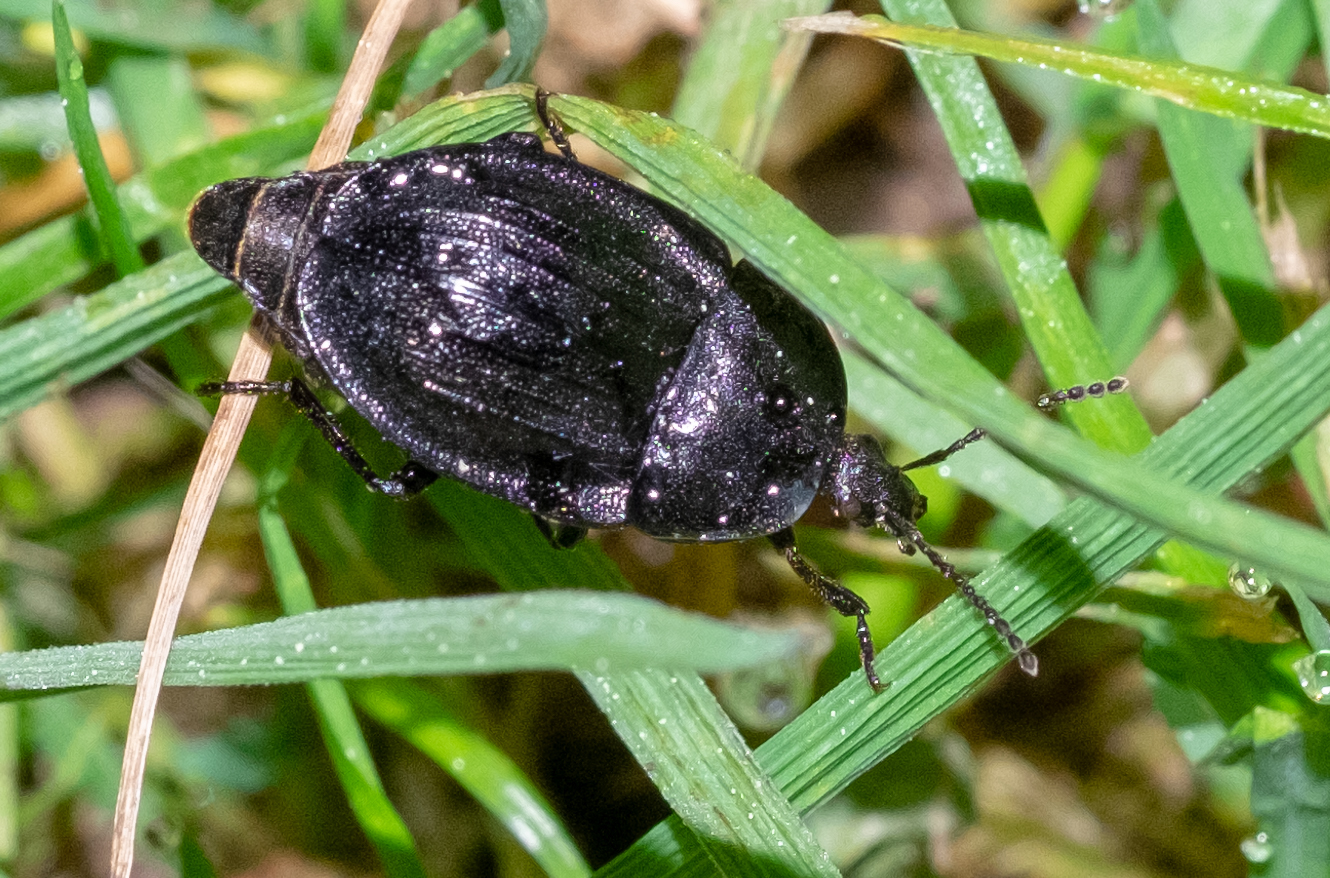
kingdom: Animalia
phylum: Arthropoda
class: Insecta
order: Coleoptera
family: Staphylinidae
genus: Silpha
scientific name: Silpha atrata
